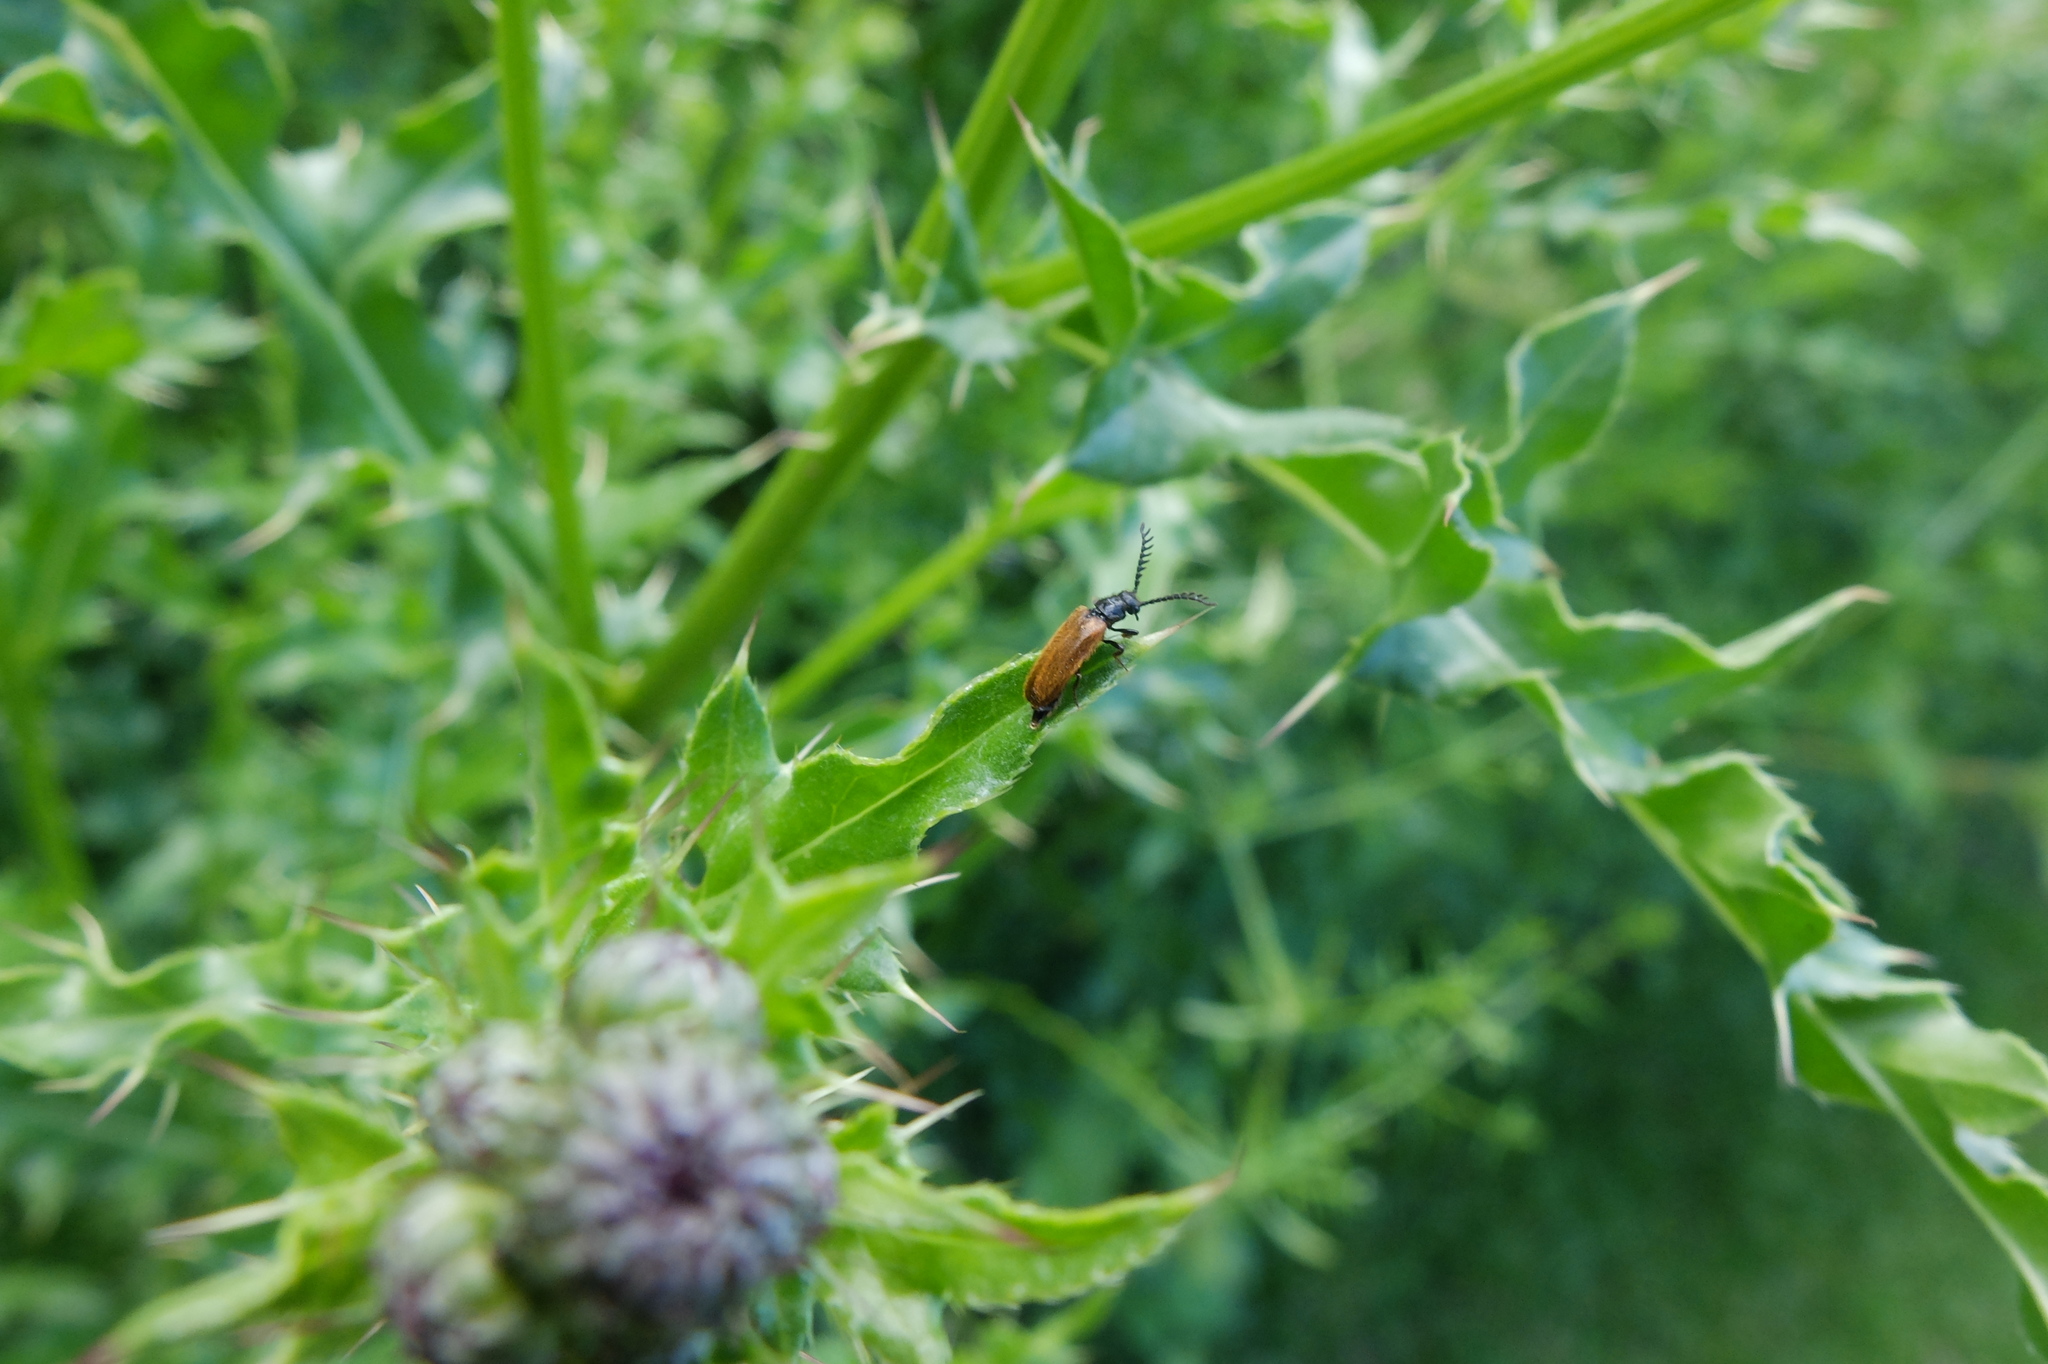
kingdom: Animalia
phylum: Arthropoda
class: Insecta
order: Coleoptera
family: Drilidae
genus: Drilus
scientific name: Drilus flavescens
